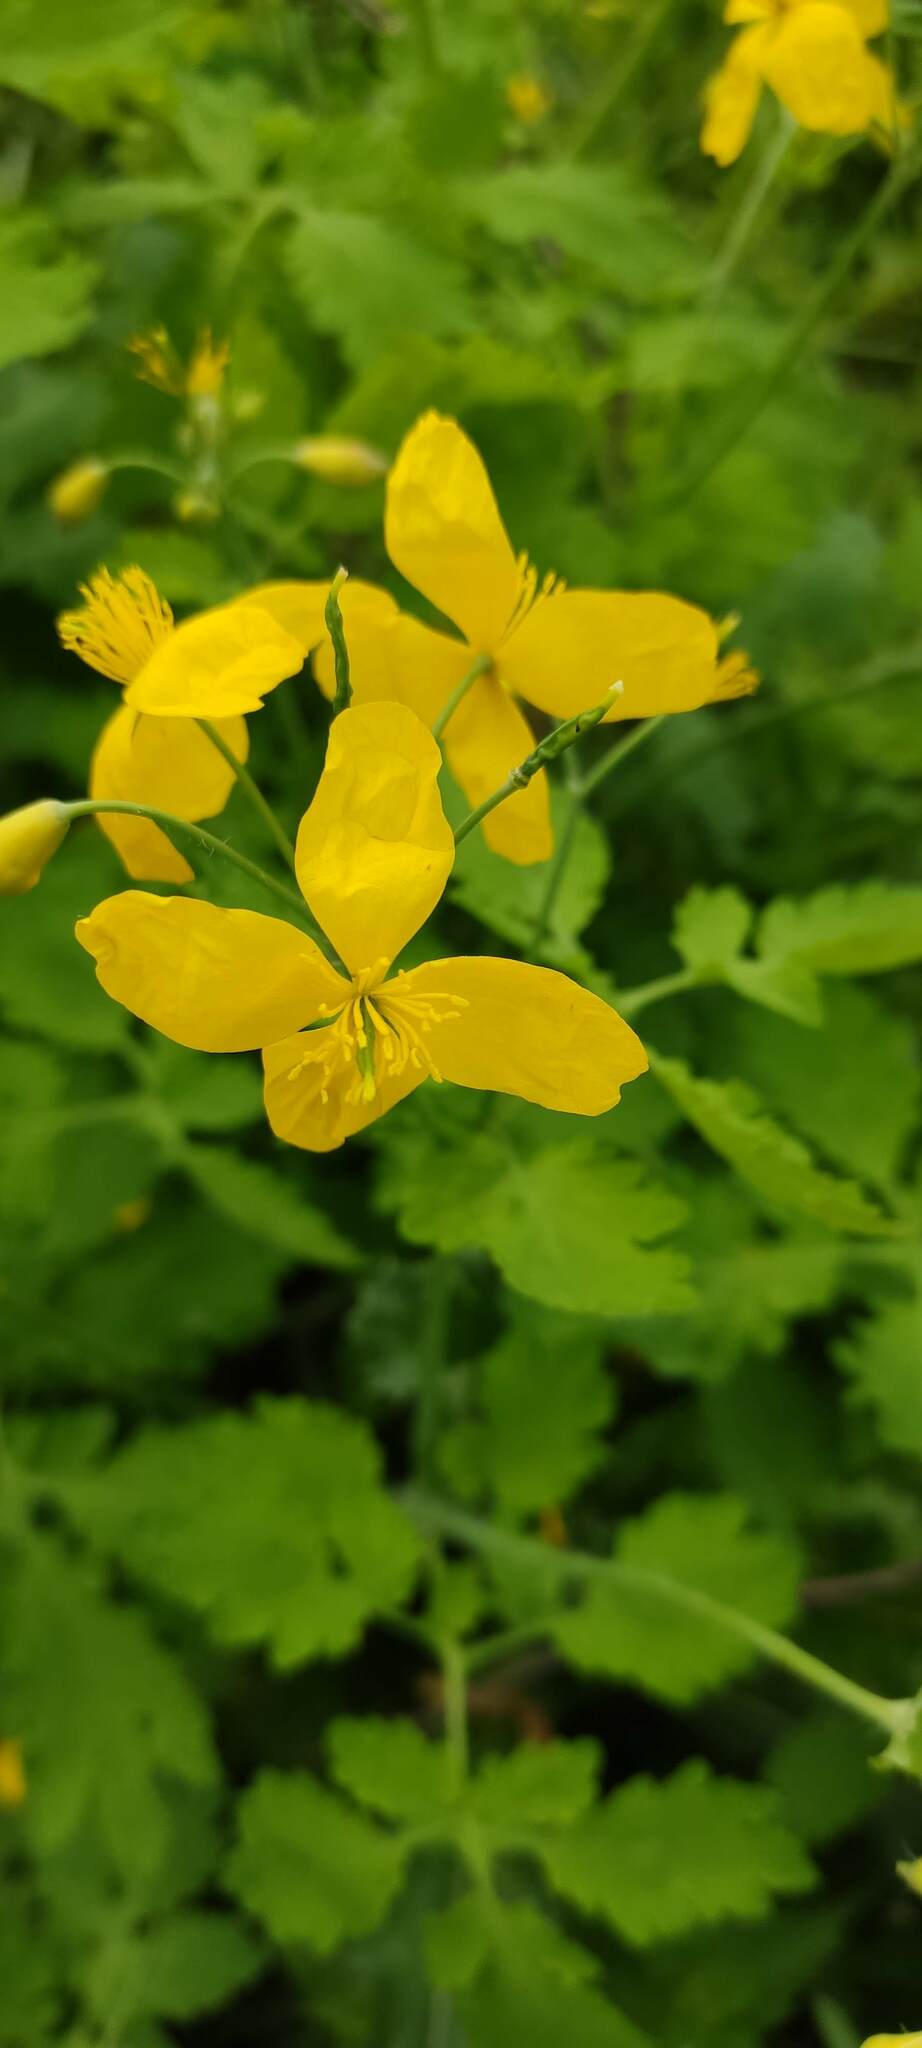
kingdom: Plantae
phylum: Tracheophyta
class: Magnoliopsida
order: Ranunculales
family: Papaveraceae
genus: Chelidonium
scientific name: Chelidonium majus
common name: Greater celandine
